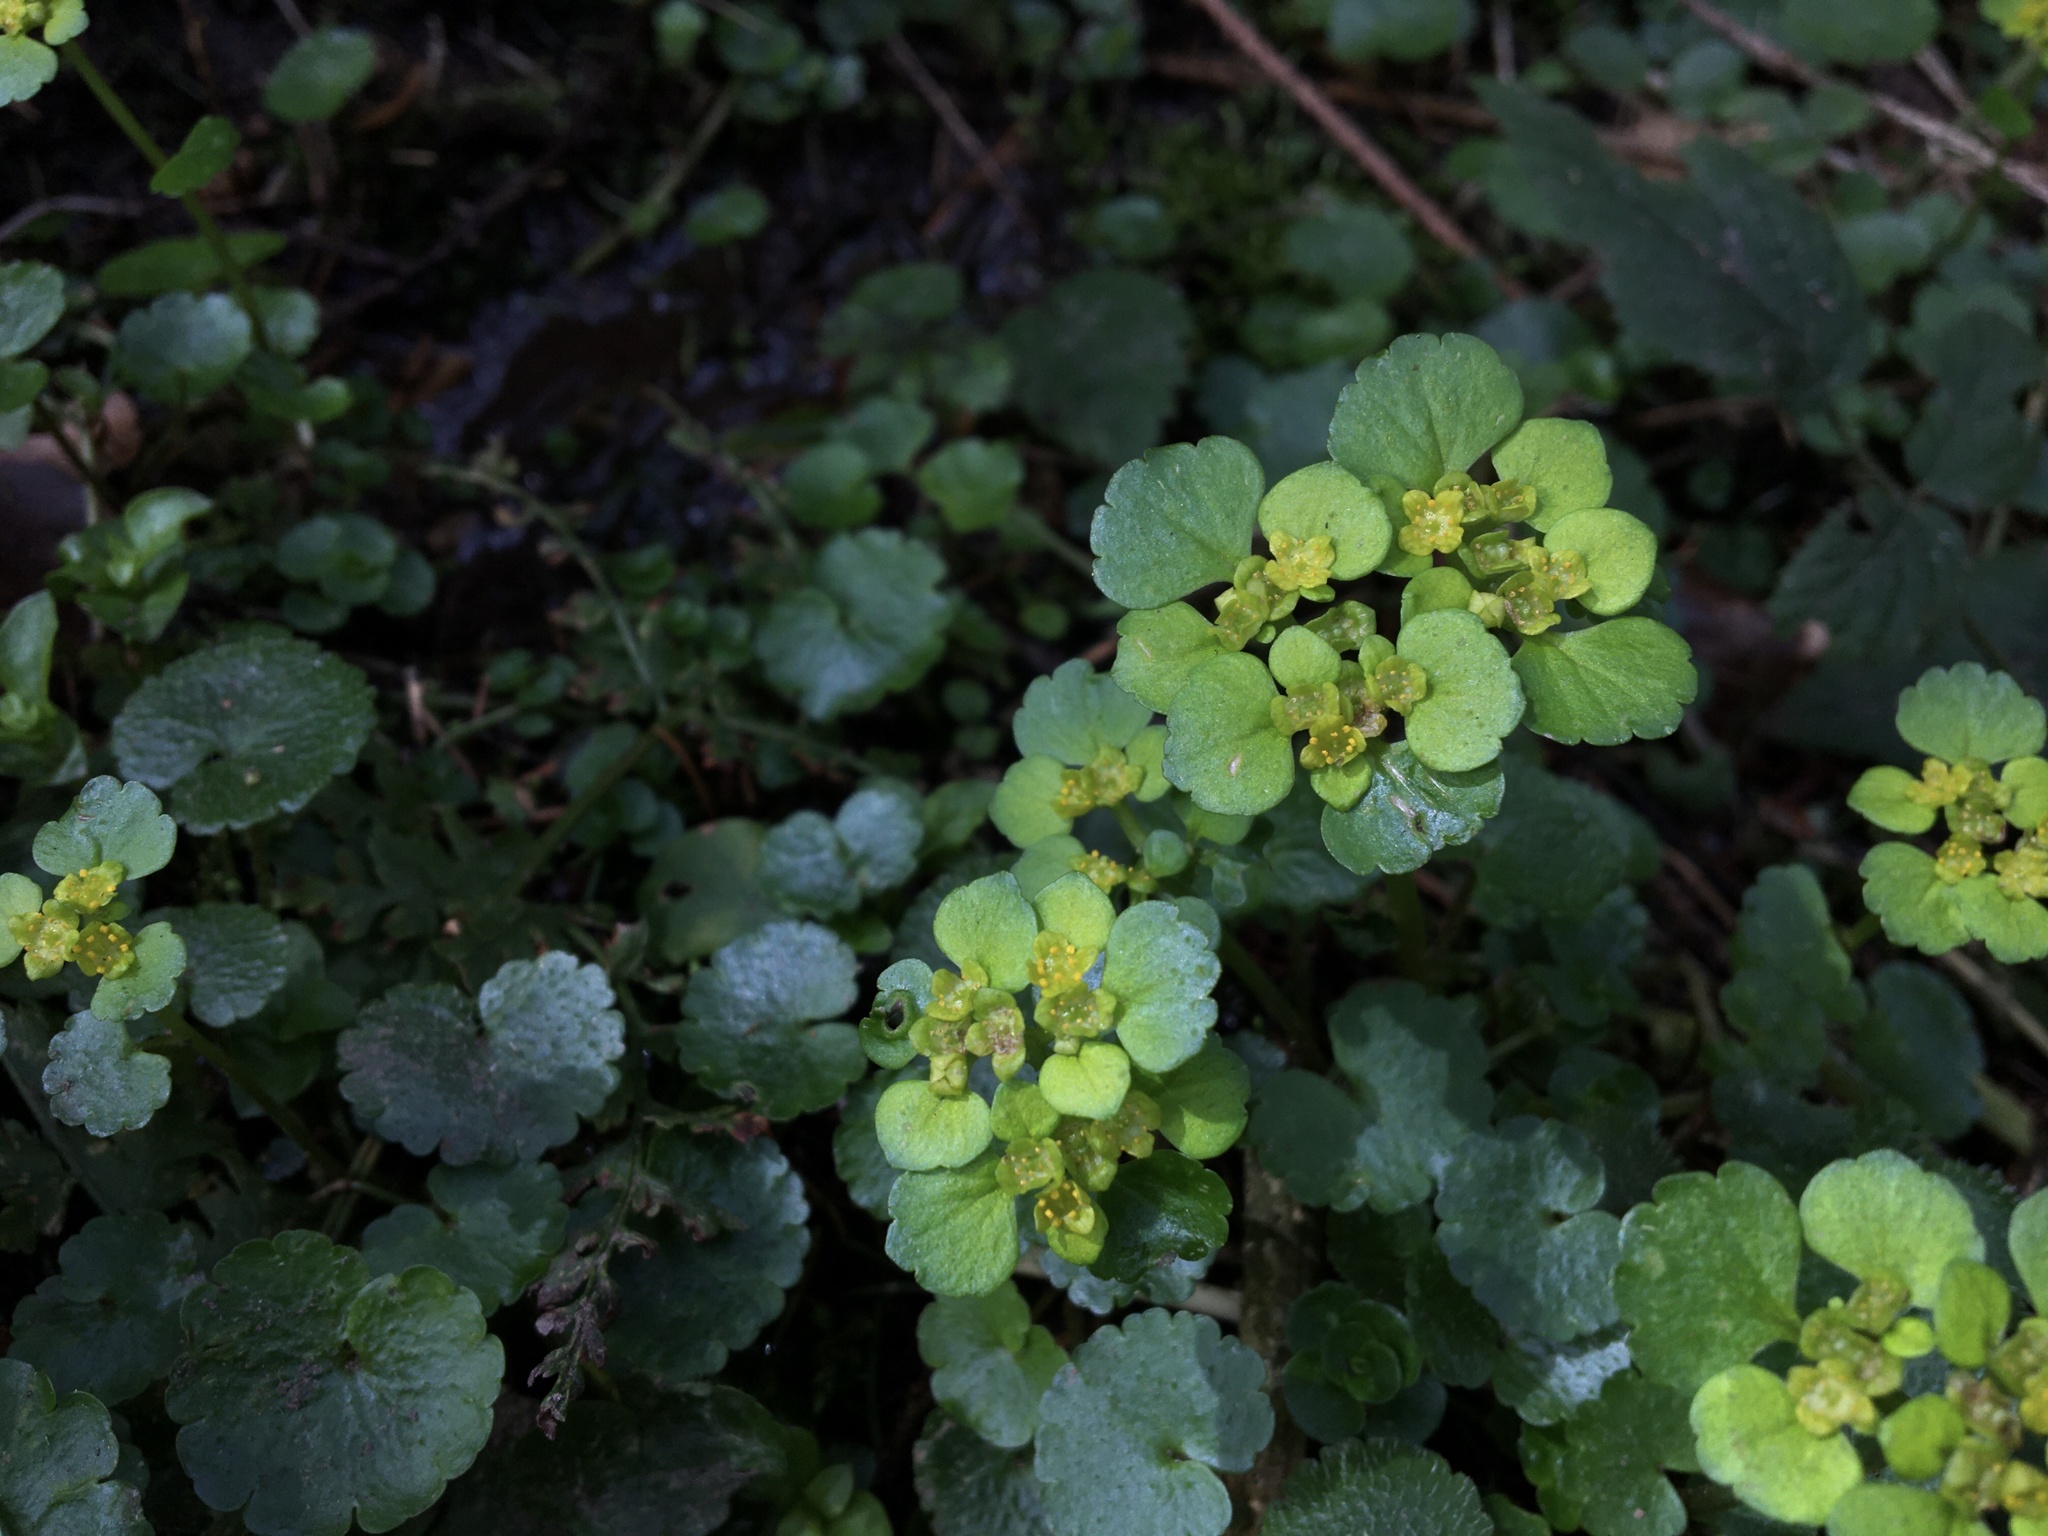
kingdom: Plantae
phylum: Tracheophyta
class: Magnoliopsida
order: Saxifragales
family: Saxifragaceae
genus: Chrysosplenium
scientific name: Chrysosplenium alternifolium
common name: Alternate-leaved golden-saxifrage
